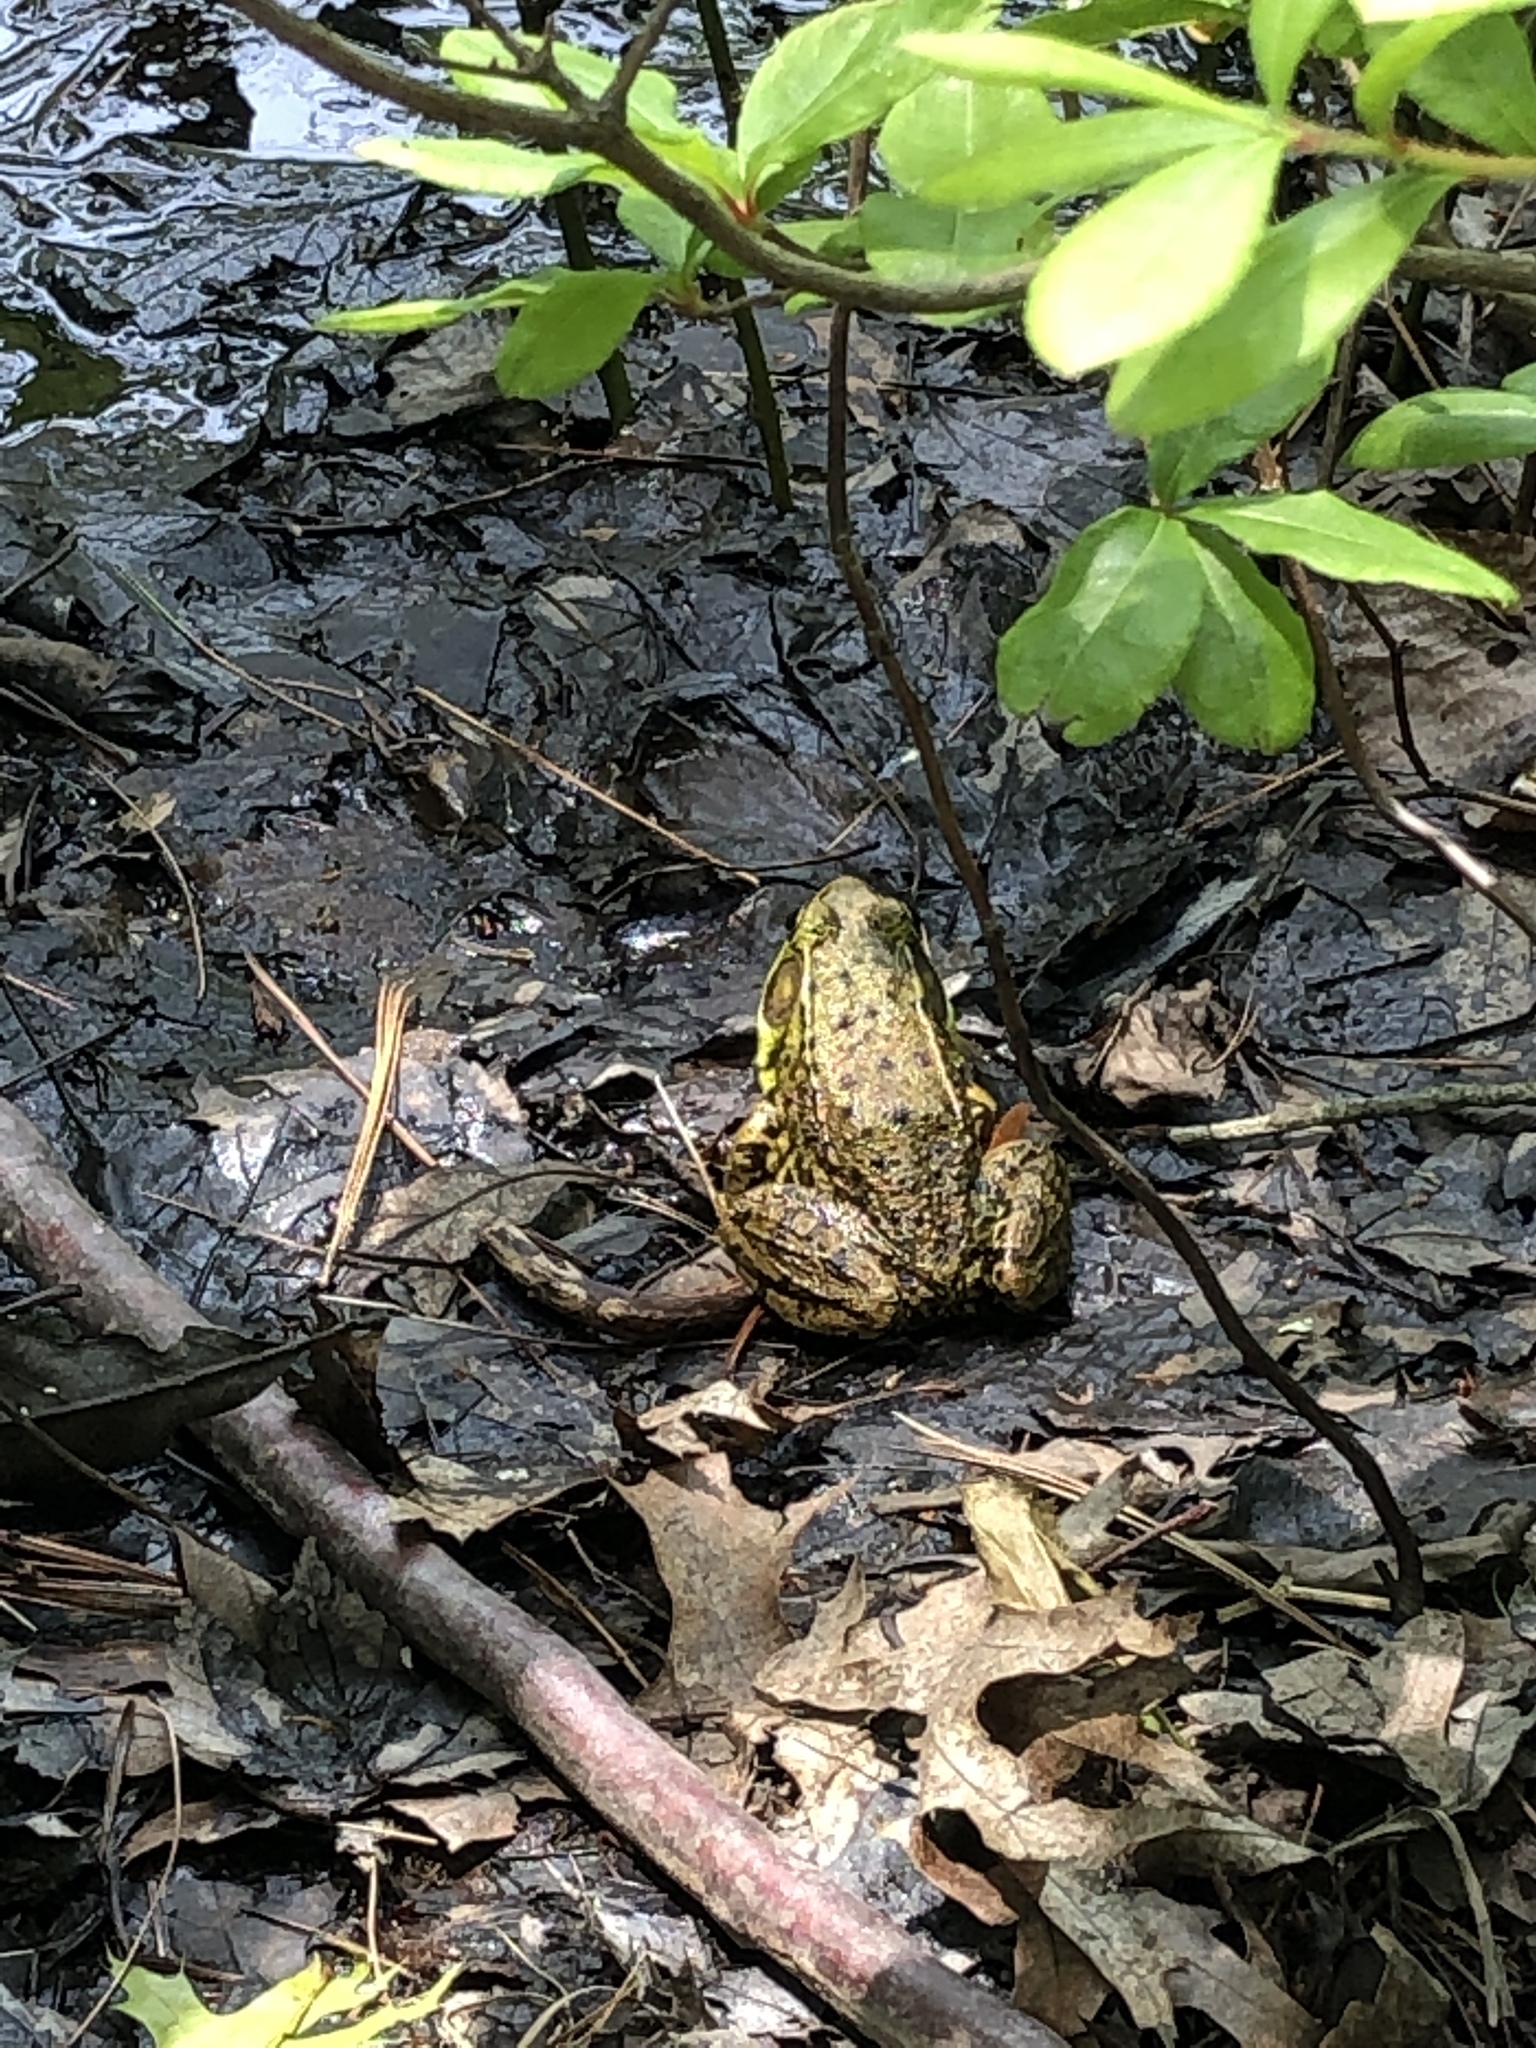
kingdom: Animalia
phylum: Chordata
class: Amphibia
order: Anura
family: Ranidae
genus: Lithobates
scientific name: Lithobates clamitans
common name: Green frog
